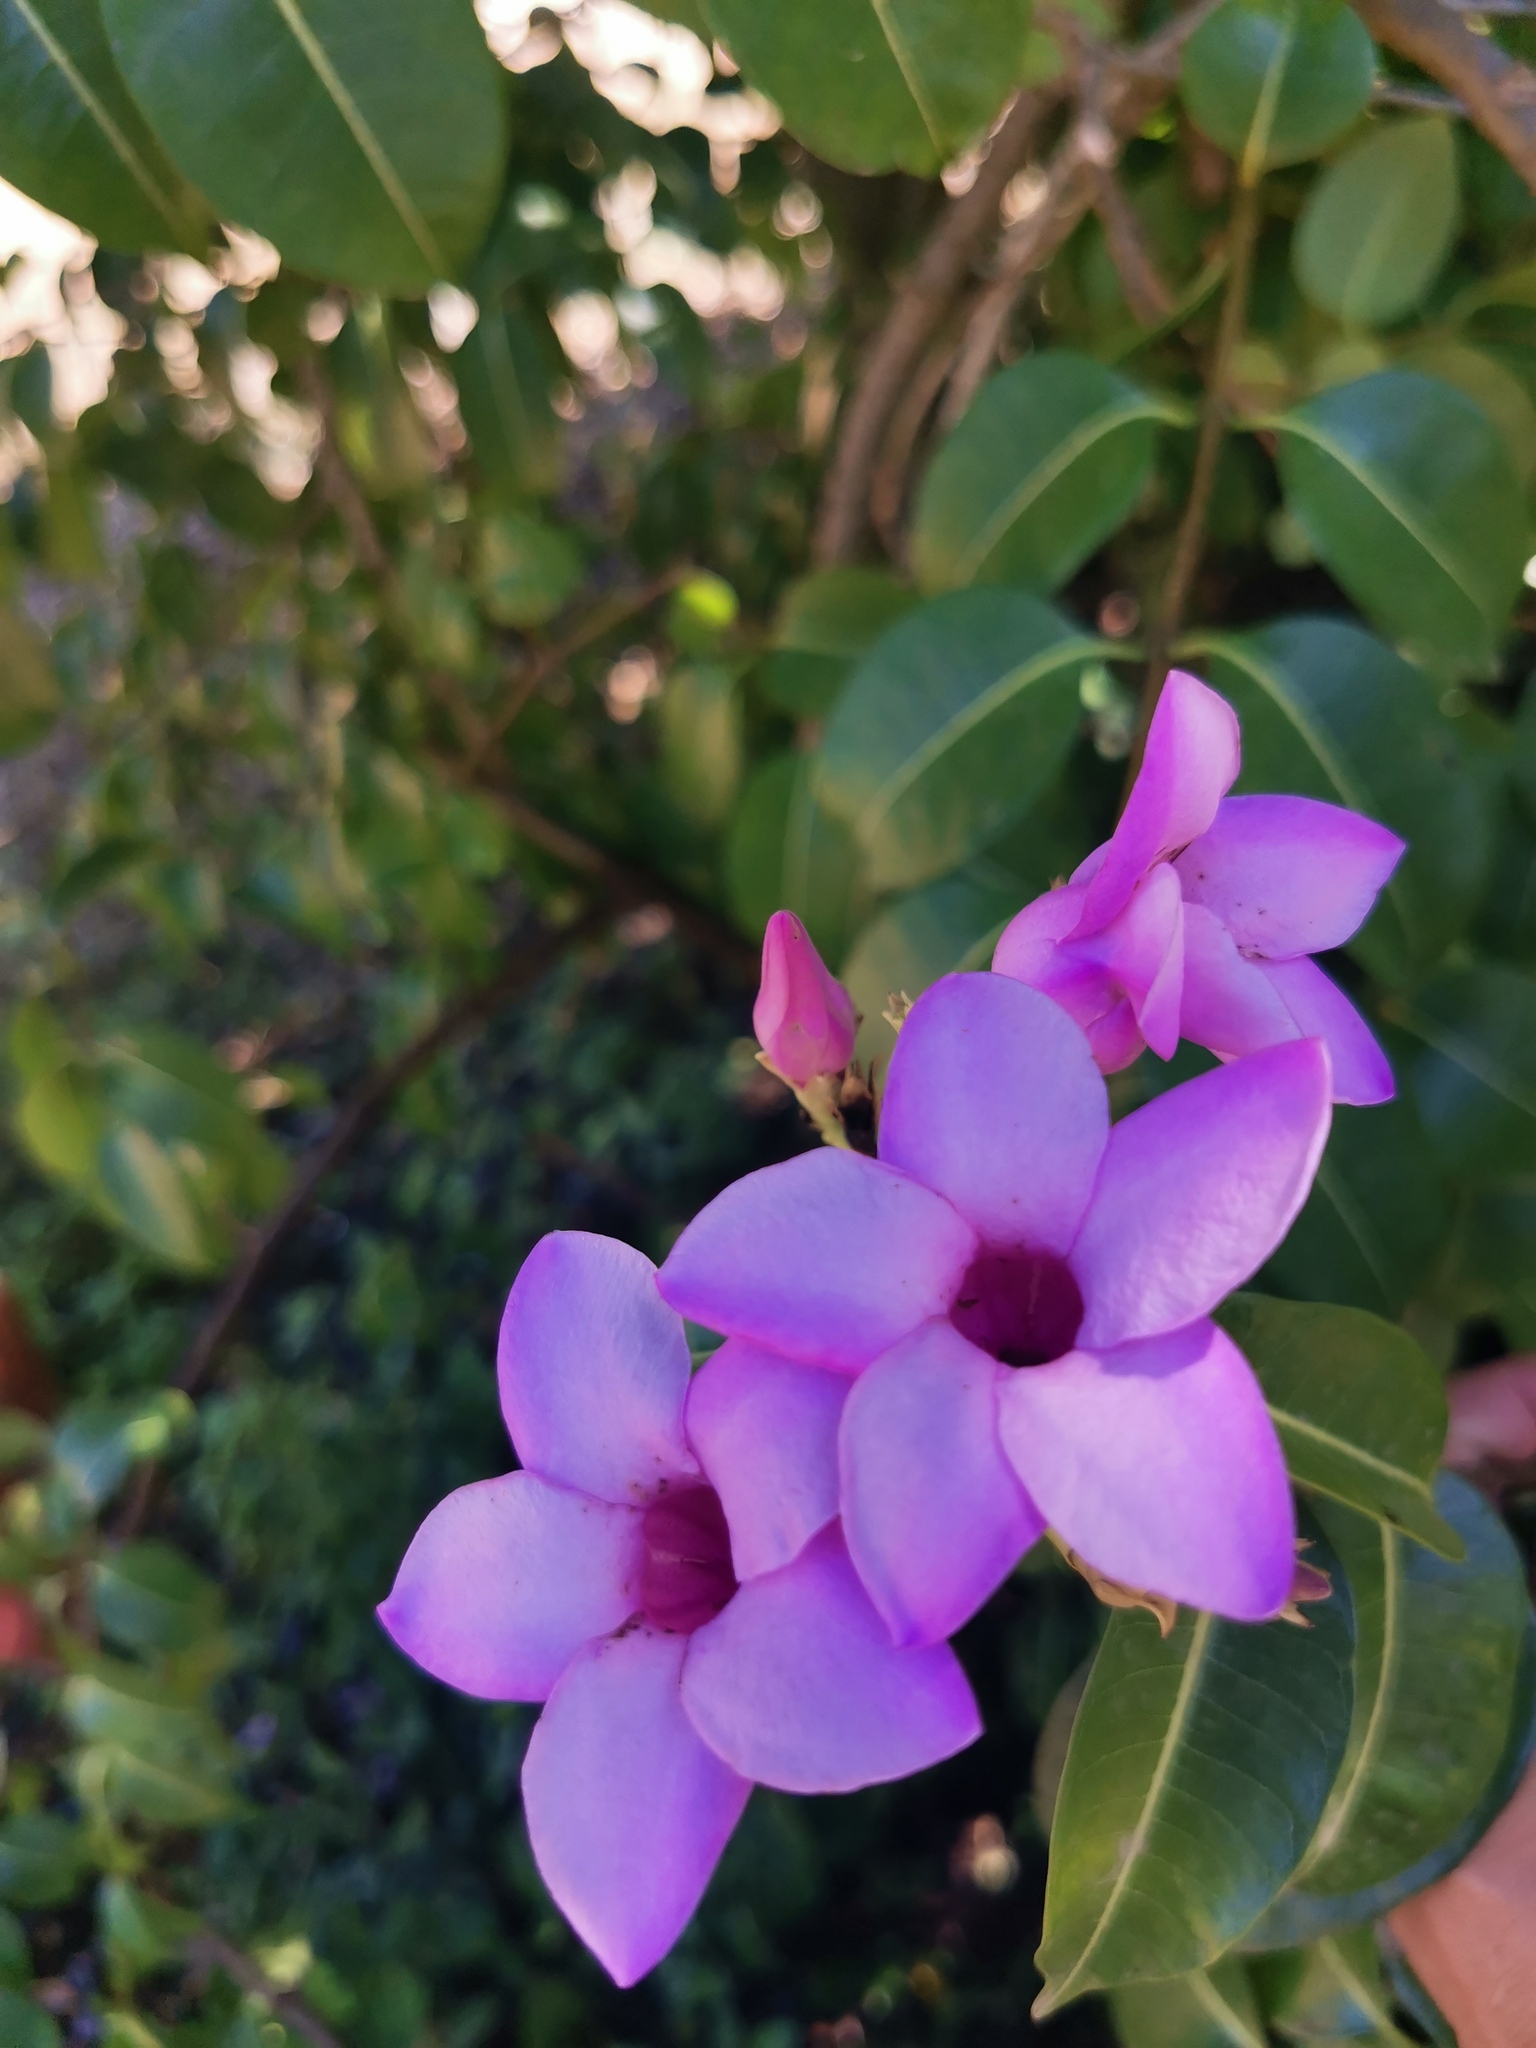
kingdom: Plantae
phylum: Tracheophyta
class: Magnoliopsida
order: Gentianales
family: Apocynaceae
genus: Cryptostegia
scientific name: Cryptostegia grandiflora
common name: Palay rubbervine
